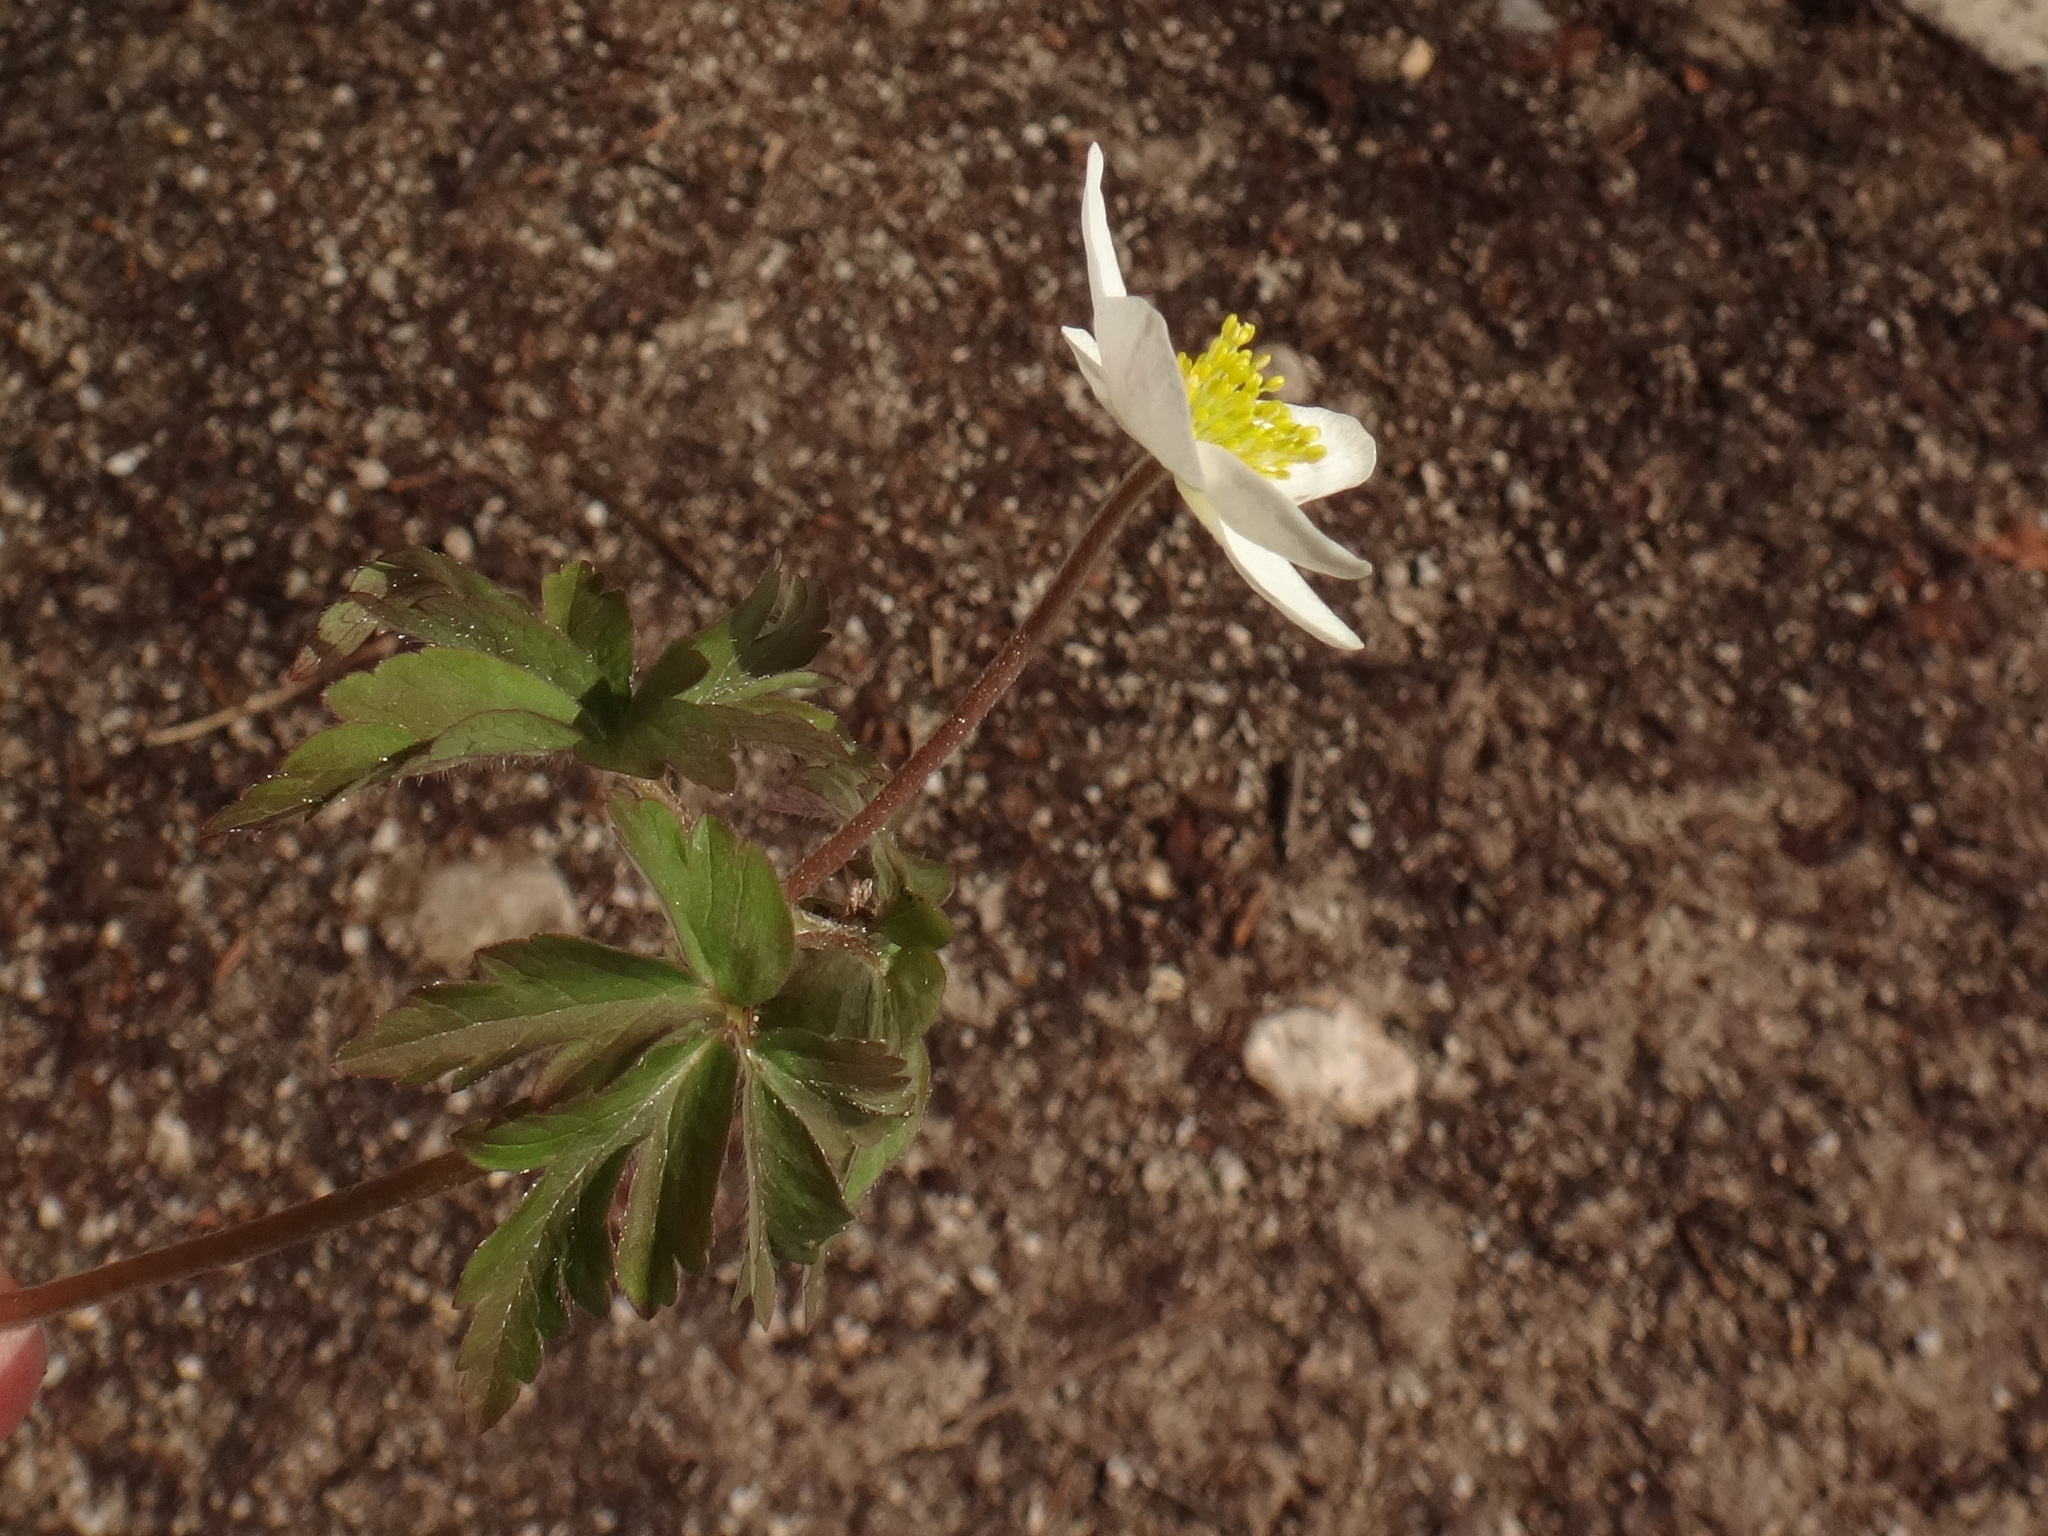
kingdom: Plantae
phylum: Tracheophyta
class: Magnoliopsida
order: Ranunculales
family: Ranunculaceae
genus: Anemone
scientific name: Anemone nemorosa
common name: Wood anemone
